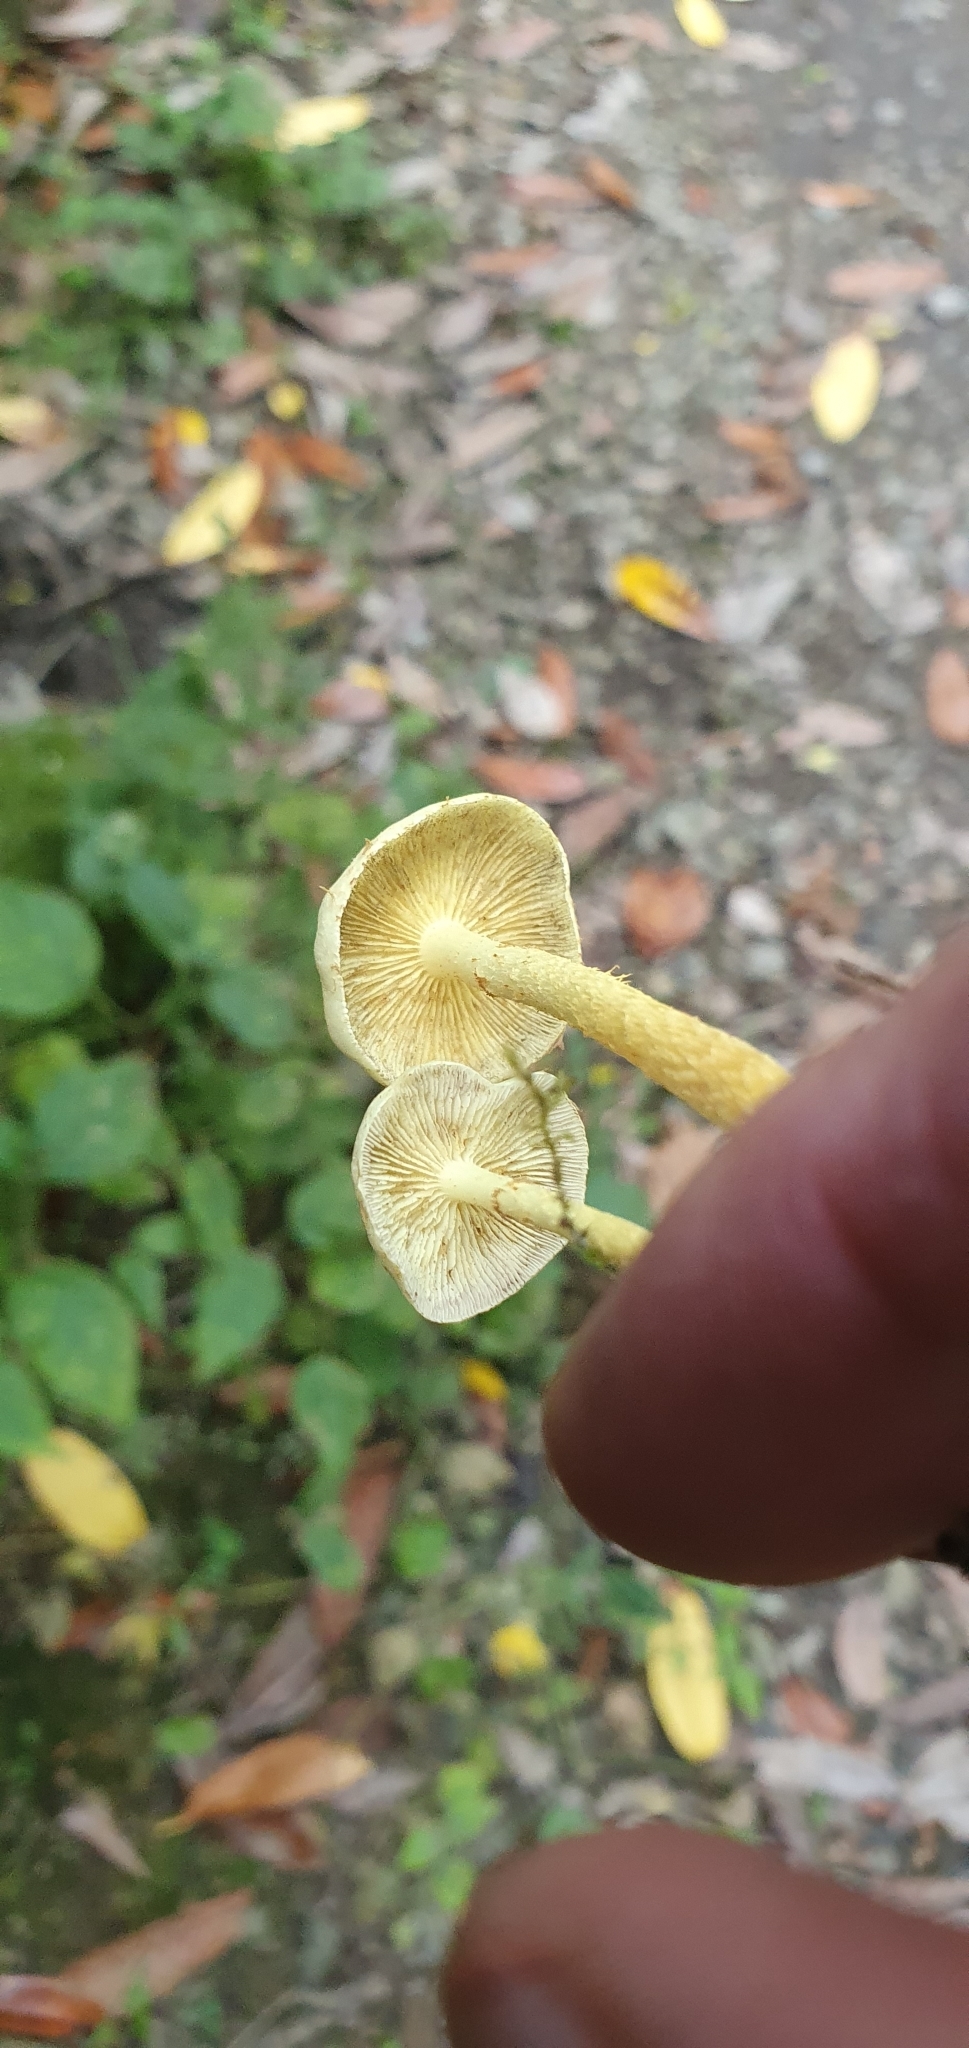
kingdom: Fungi
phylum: Basidiomycota
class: Agaricomycetes
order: Agaricales
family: Strophariaceae
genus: Hypholoma
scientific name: Hypholoma fasciculare
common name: Sulphur tuft
